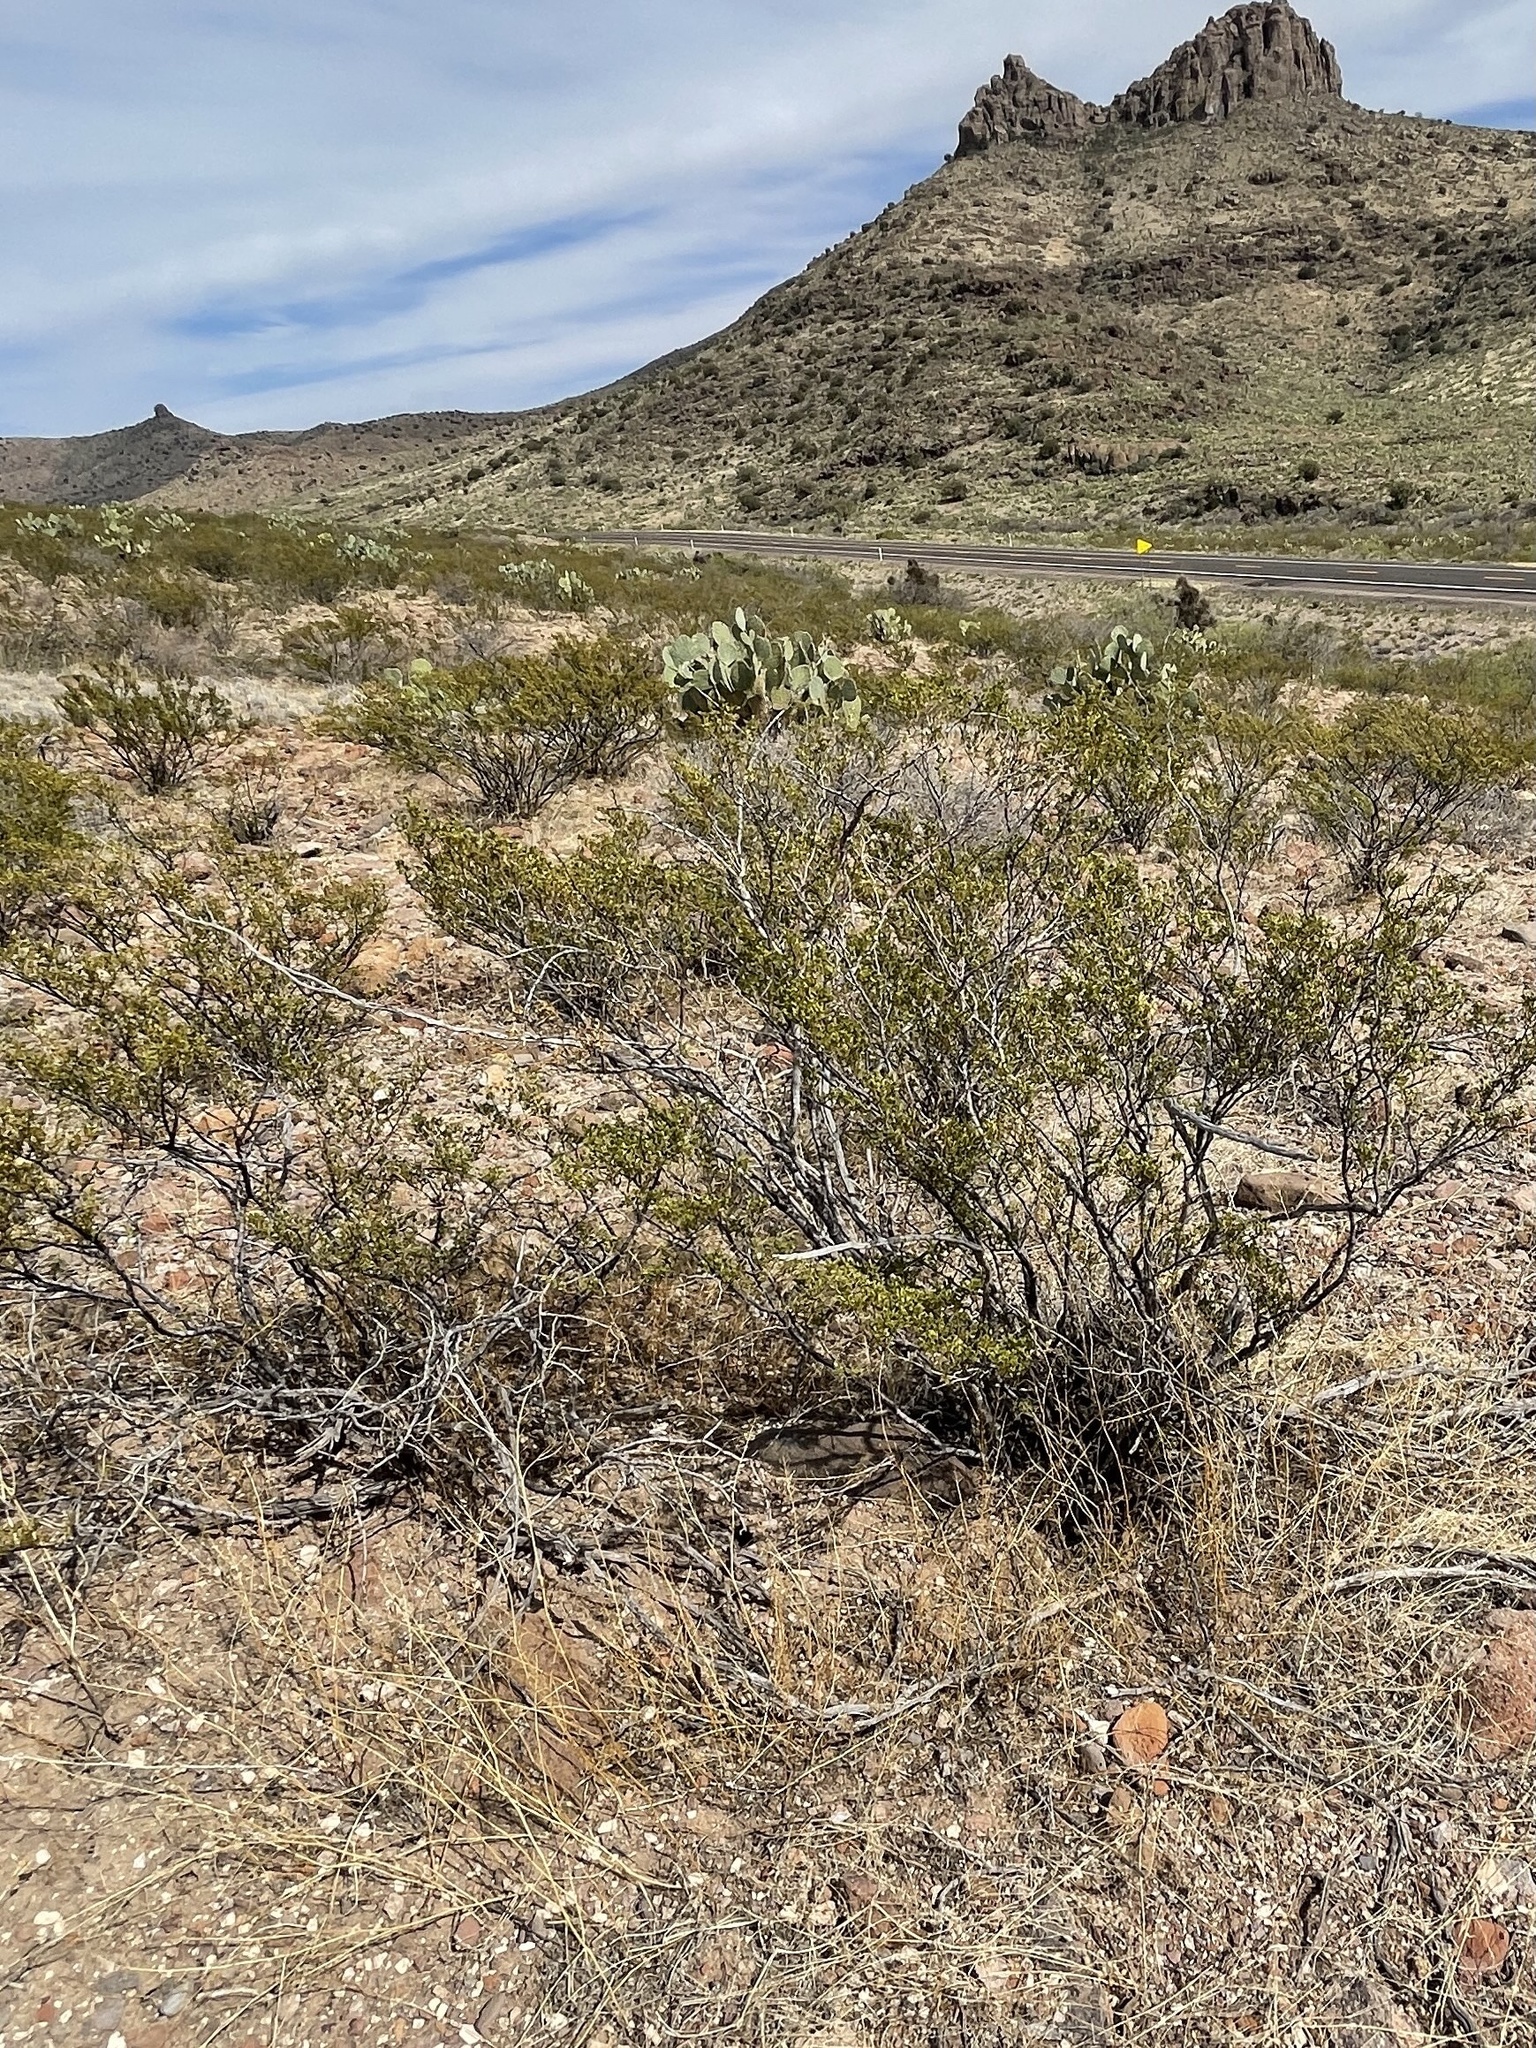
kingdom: Plantae
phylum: Tracheophyta
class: Magnoliopsida
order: Zygophyllales
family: Zygophyllaceae
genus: Larrea
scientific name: Larrea tridentata
